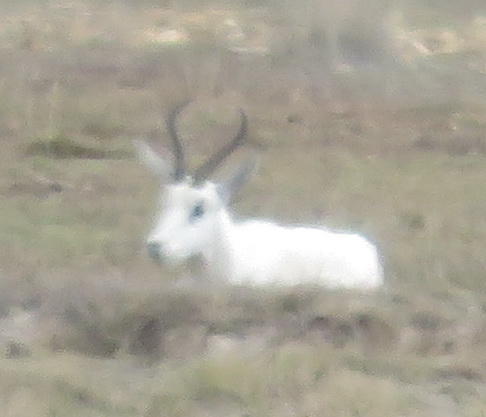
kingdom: Animalia
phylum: Chordata
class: Mammalia
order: Artiodactyla
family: Bovidae
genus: Antidorcas
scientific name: Antidorcas marsupialis
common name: Springbok
